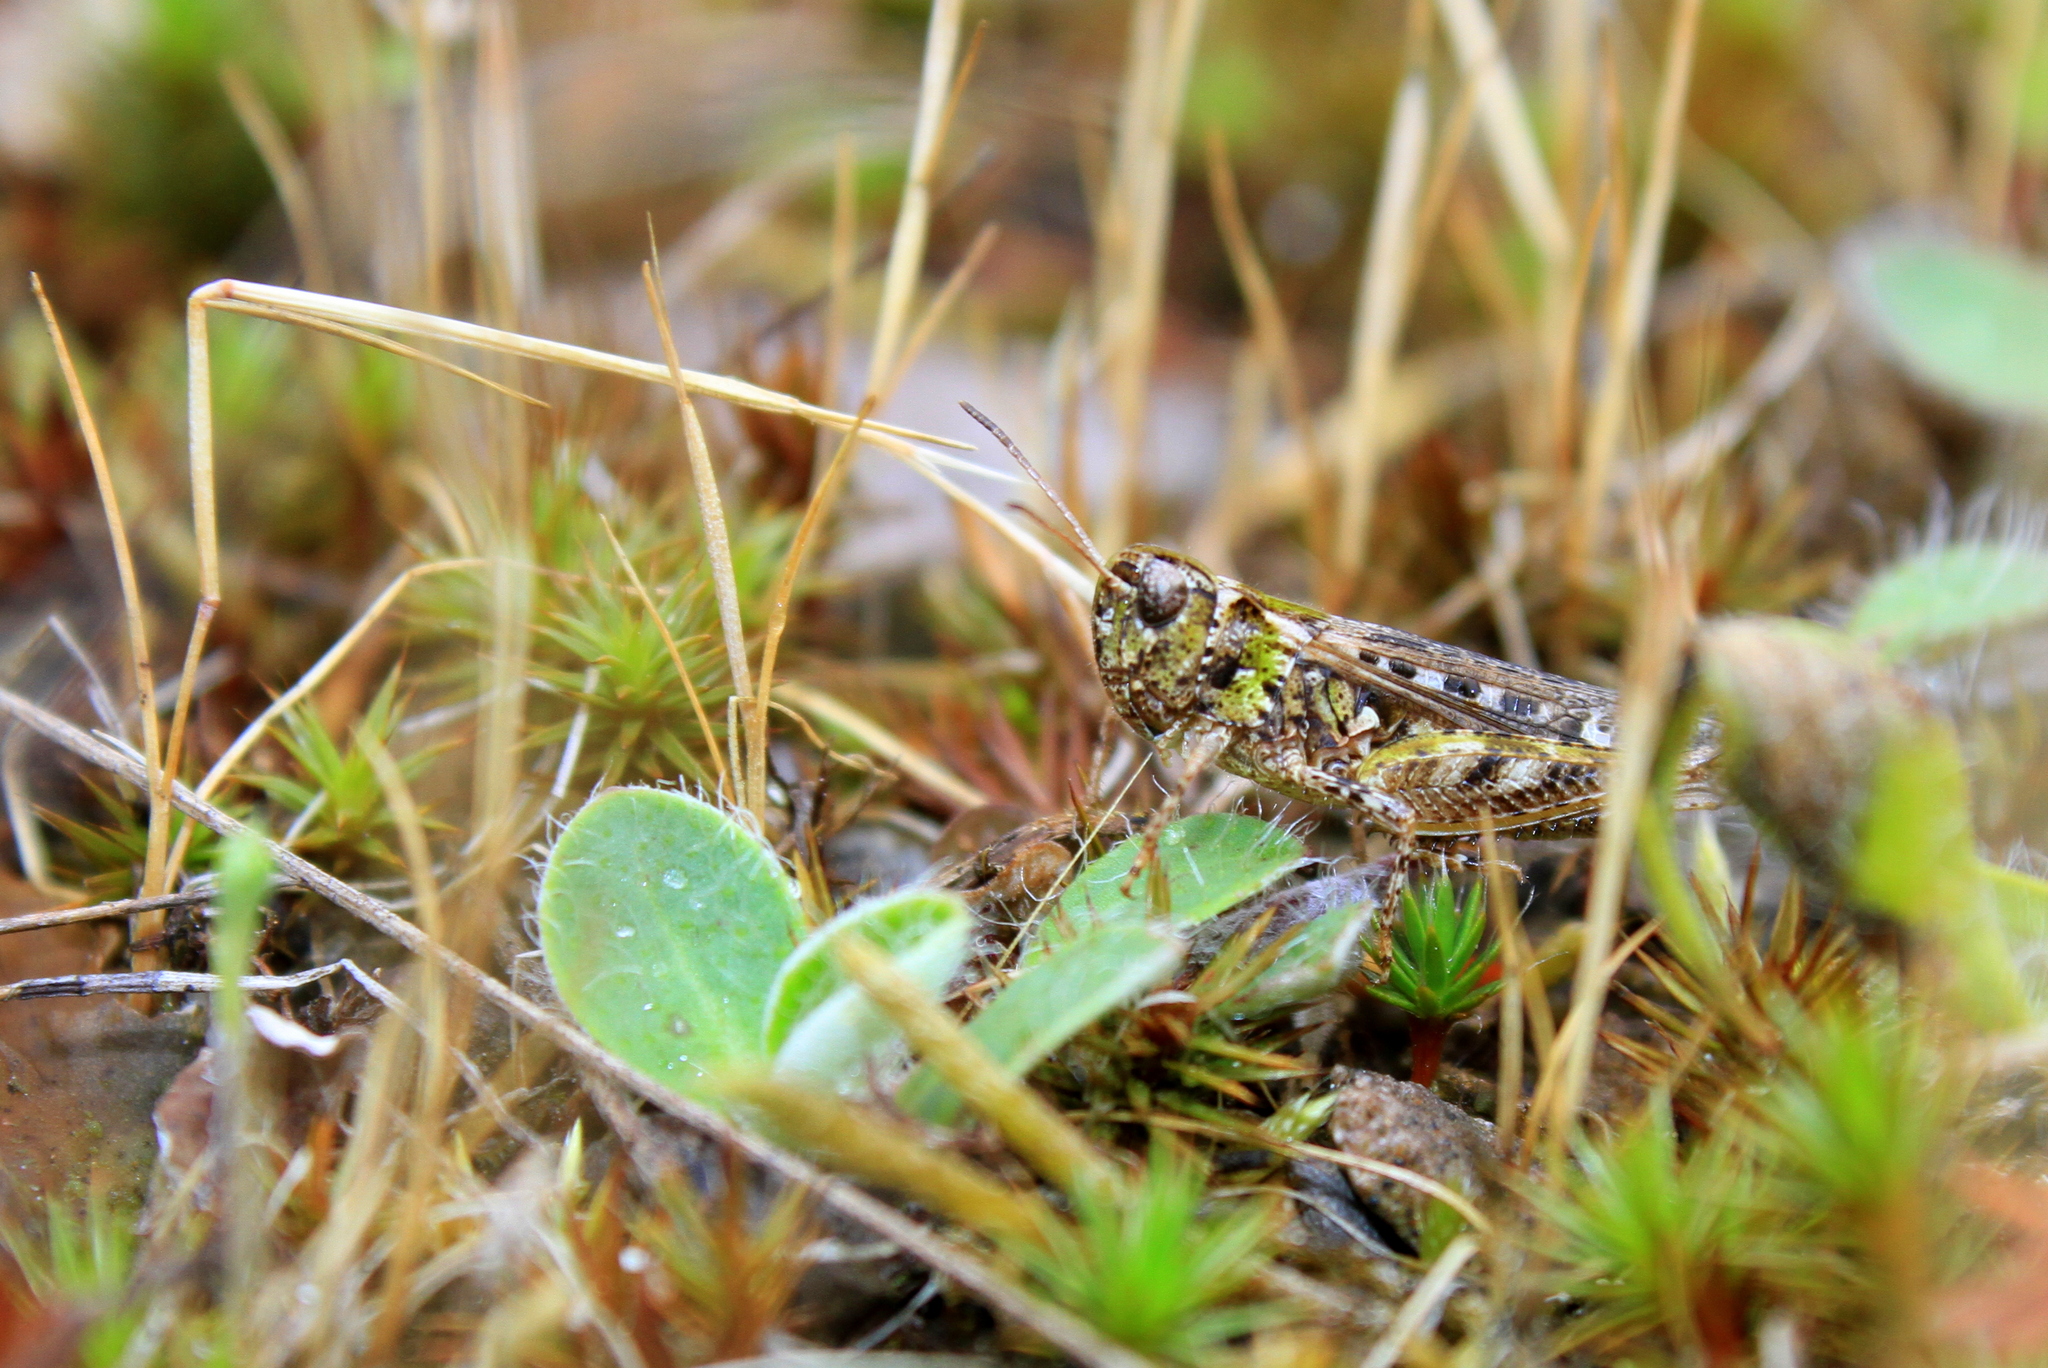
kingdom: Animalia
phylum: Arthropoda
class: Insecta
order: Orthoptera
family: Acrididae
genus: Myrmeleotettix
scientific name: Myrmeleotettix maculatus
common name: Mottled grasshopper
